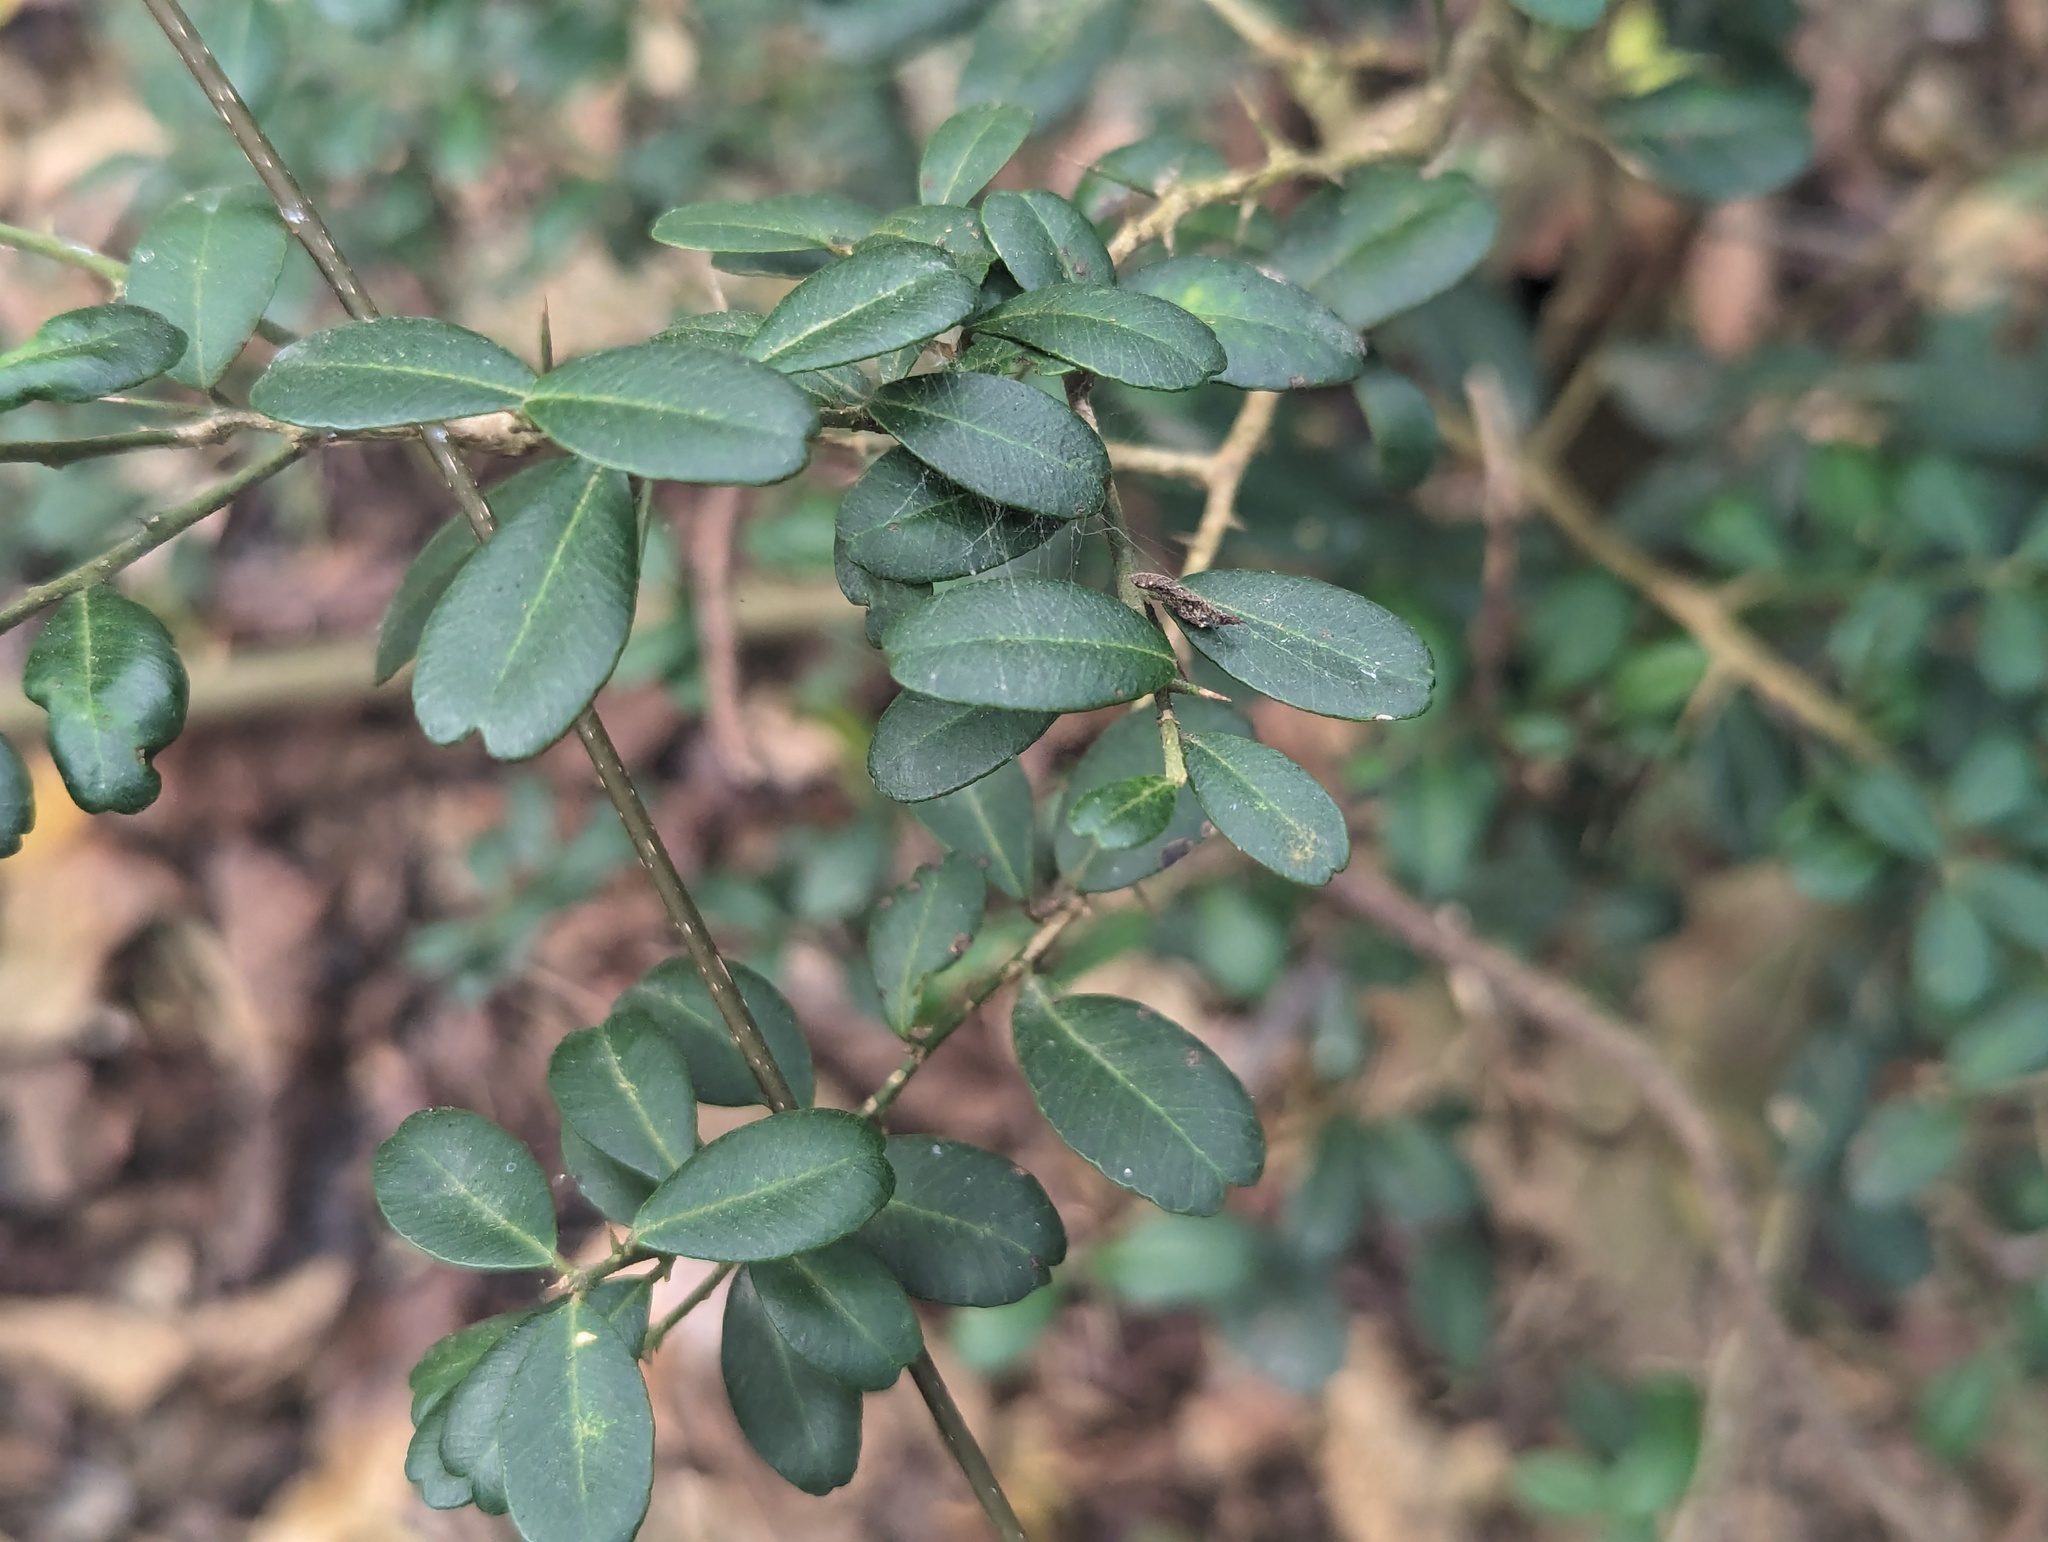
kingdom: Plantae
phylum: Tracheophyta
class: Magnoliopsida
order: Sapindales
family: Rutaceae
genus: Atalantia
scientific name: Atalantia buxifolia
